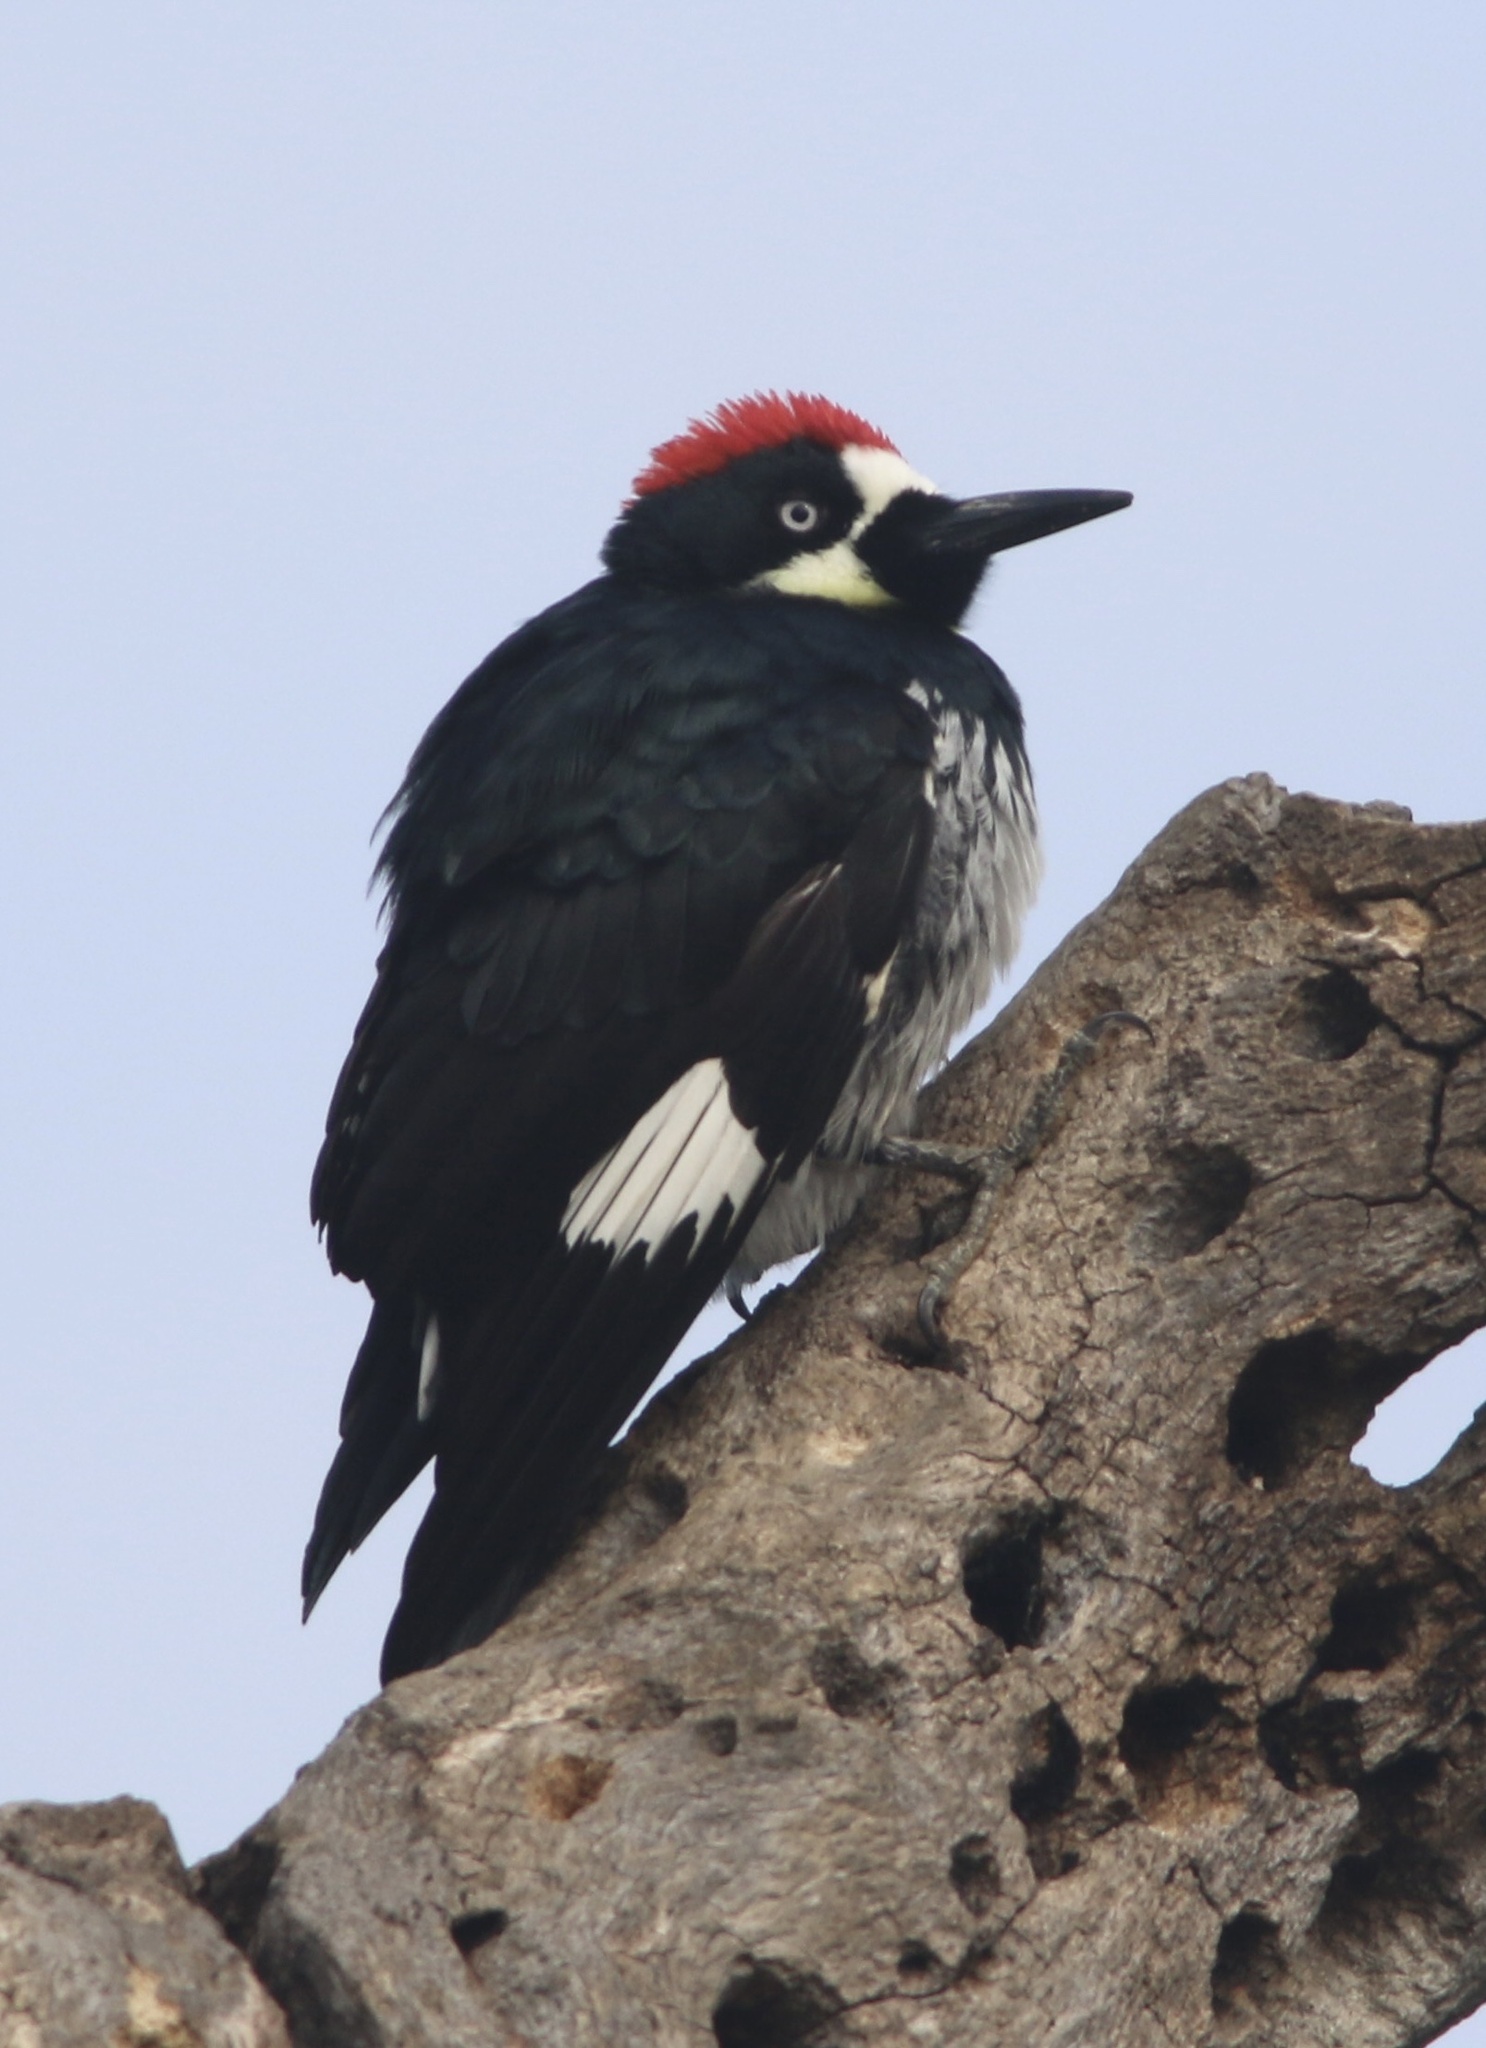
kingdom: Animalia
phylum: Chordata
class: Aves
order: Piciformes
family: Picidae
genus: Melanerpes
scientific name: Melanerpes formicivorus
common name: Acorn woodpecker
